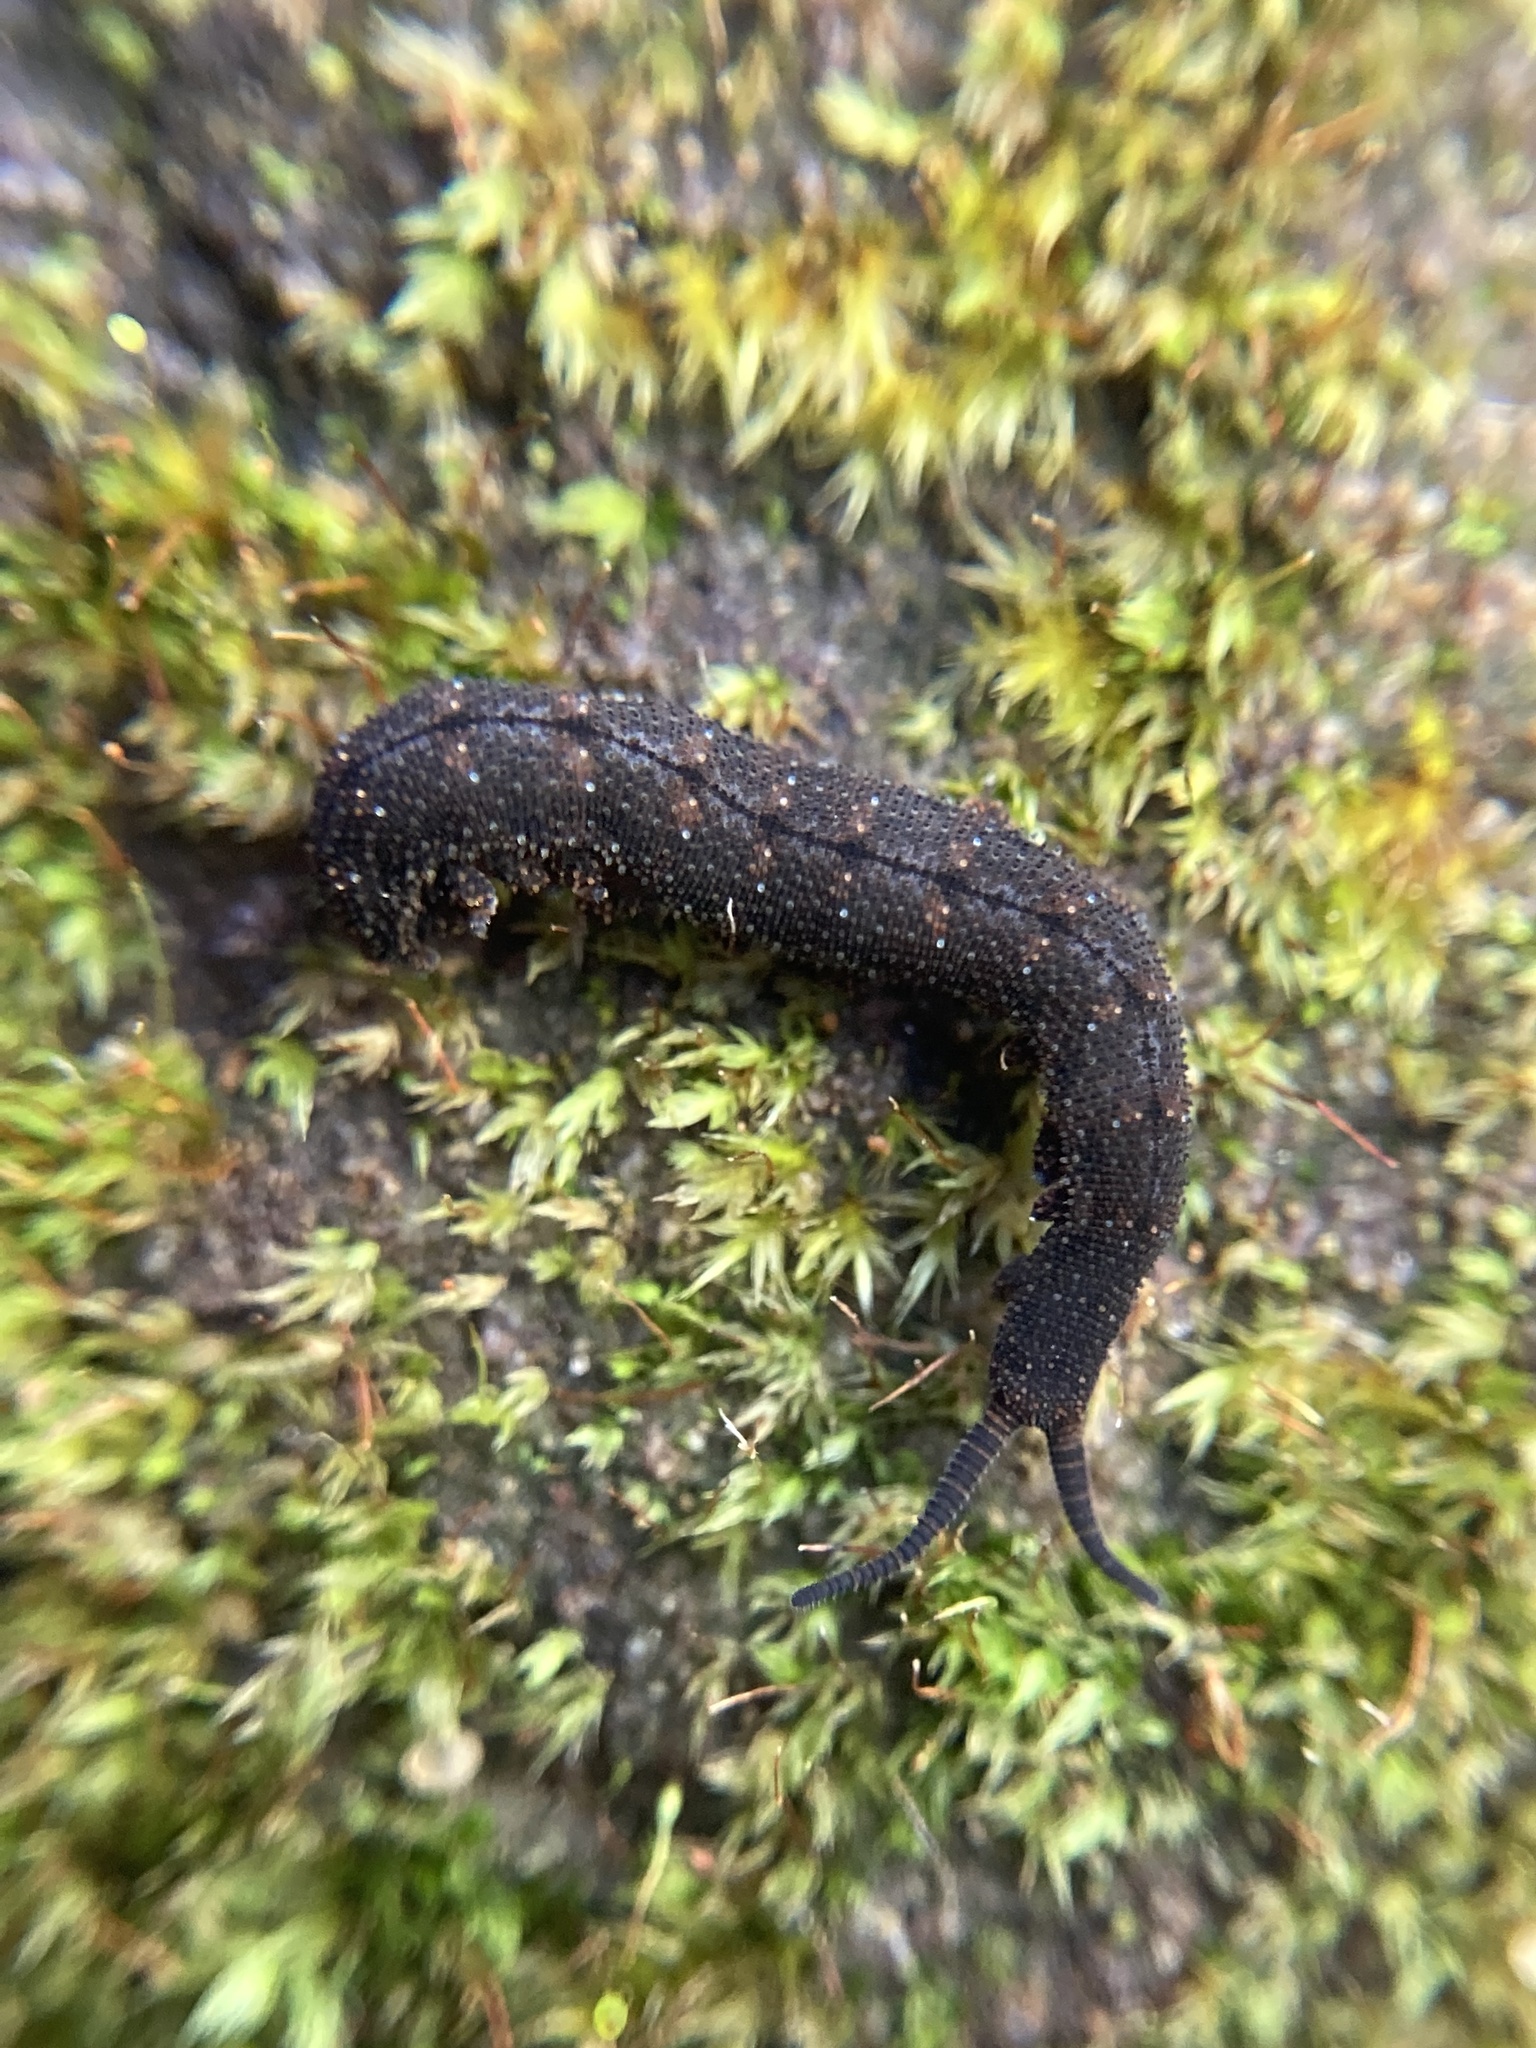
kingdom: Animalia
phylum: Onychophora
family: Peripatopsidae
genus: Anoplokaros
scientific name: Anoplokaros keerensis
